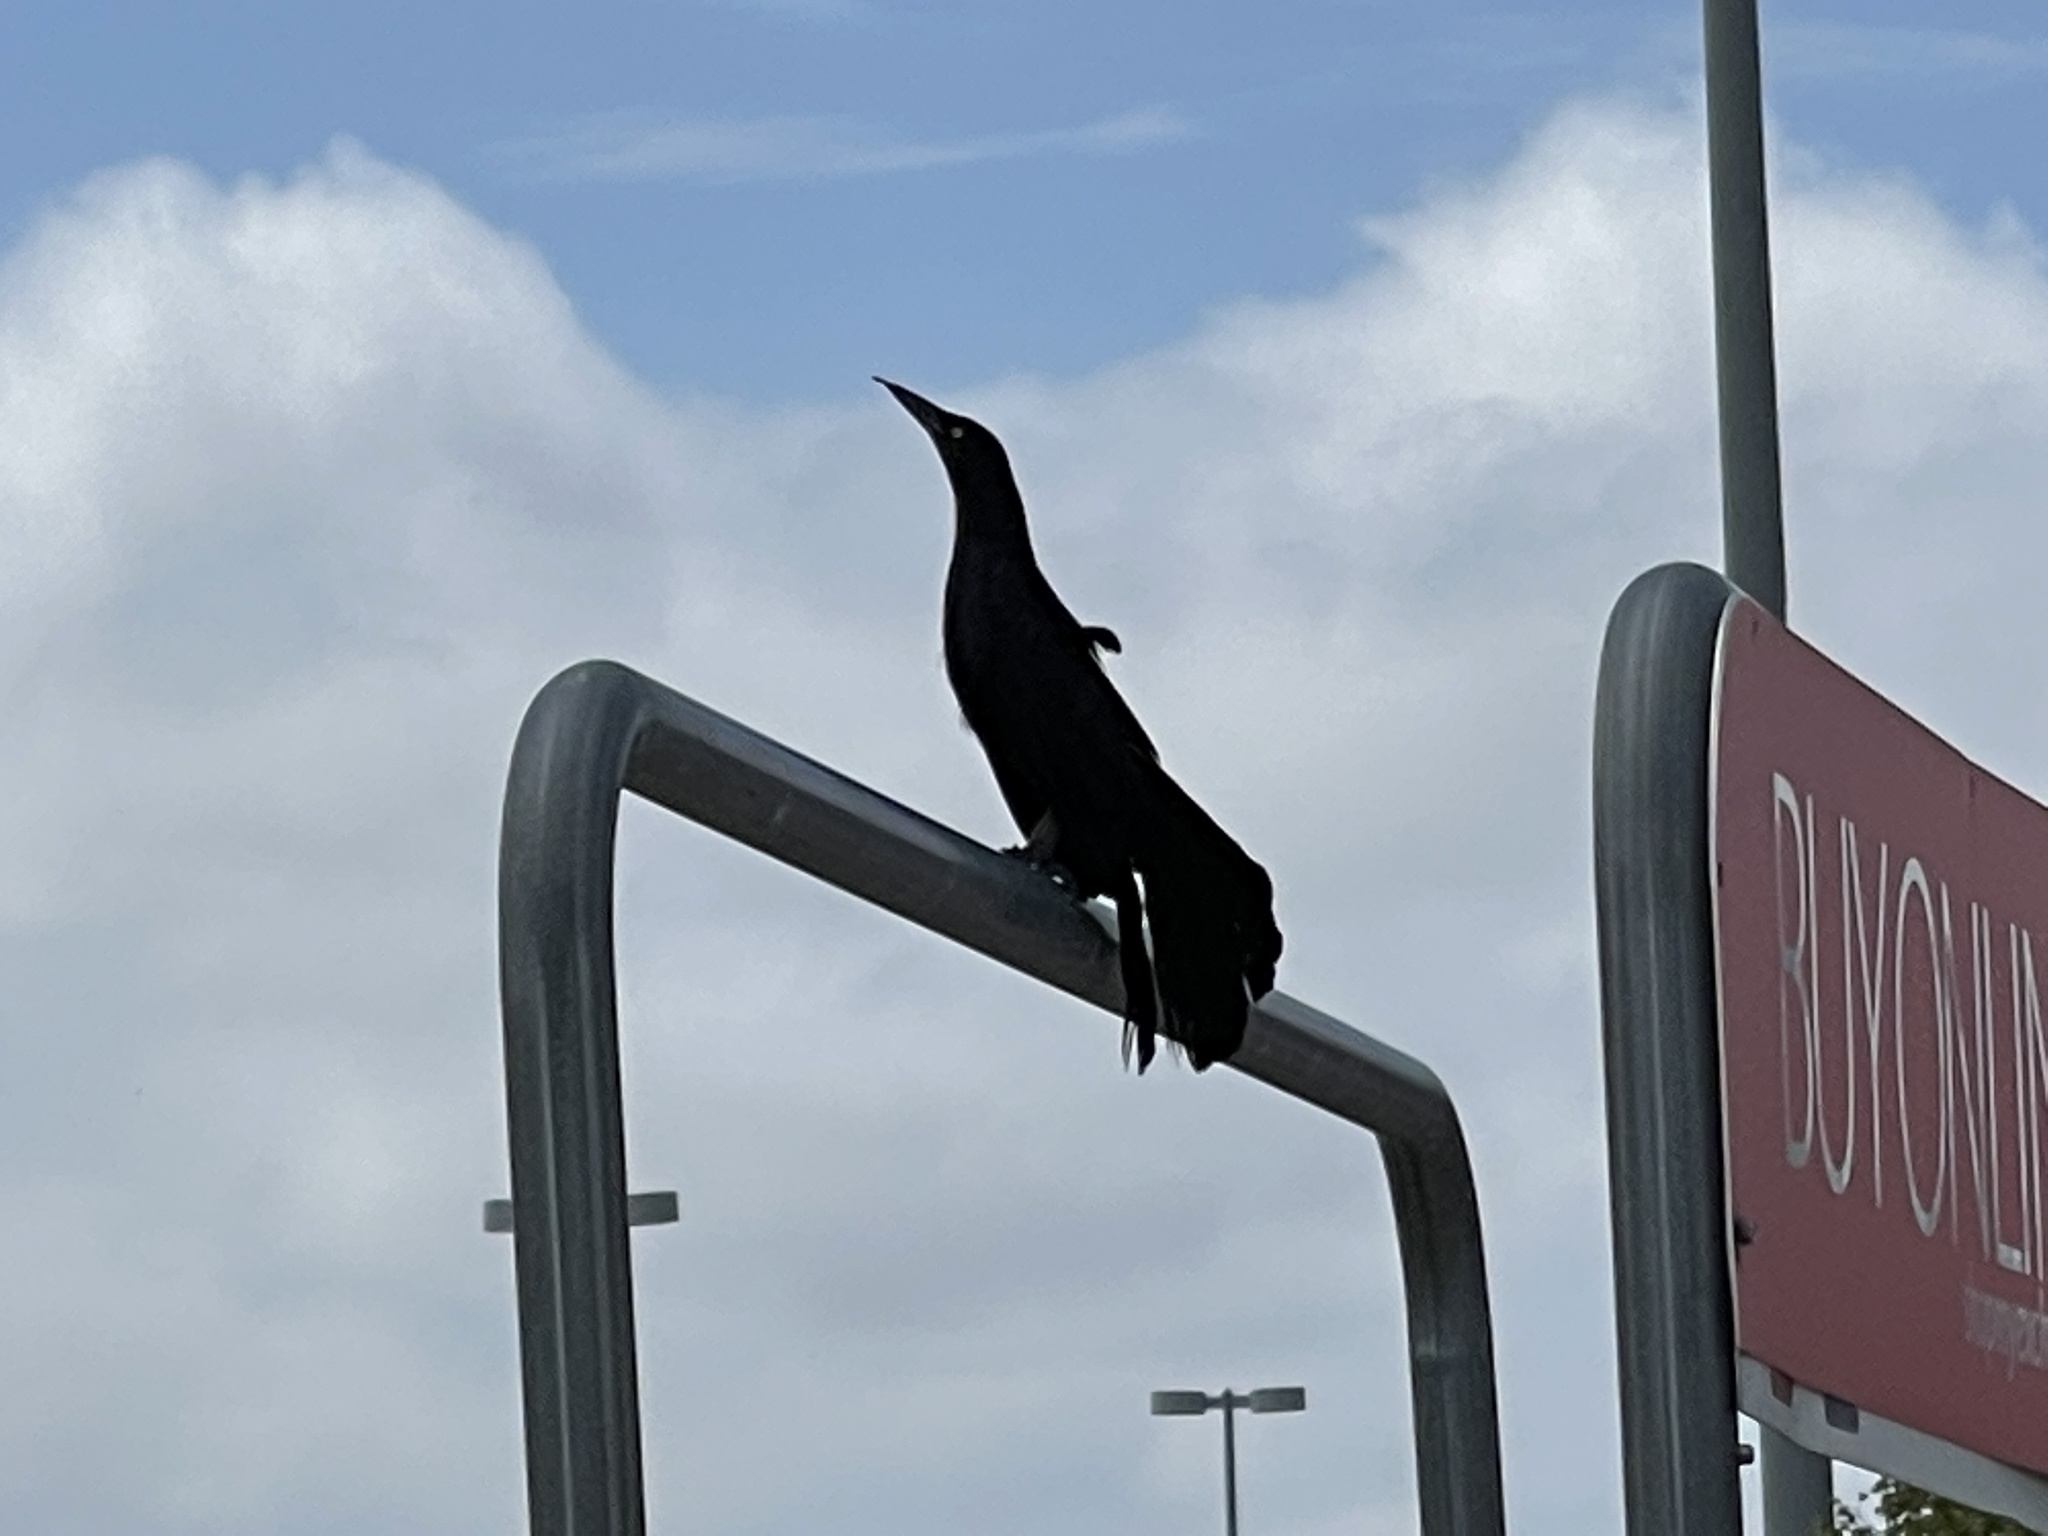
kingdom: Animalia
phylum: Chordata
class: Aves
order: Passeriformes
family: Icteridae
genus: Quiscalus
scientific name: Quiscalus mexicanus
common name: Great-tailed grackle
